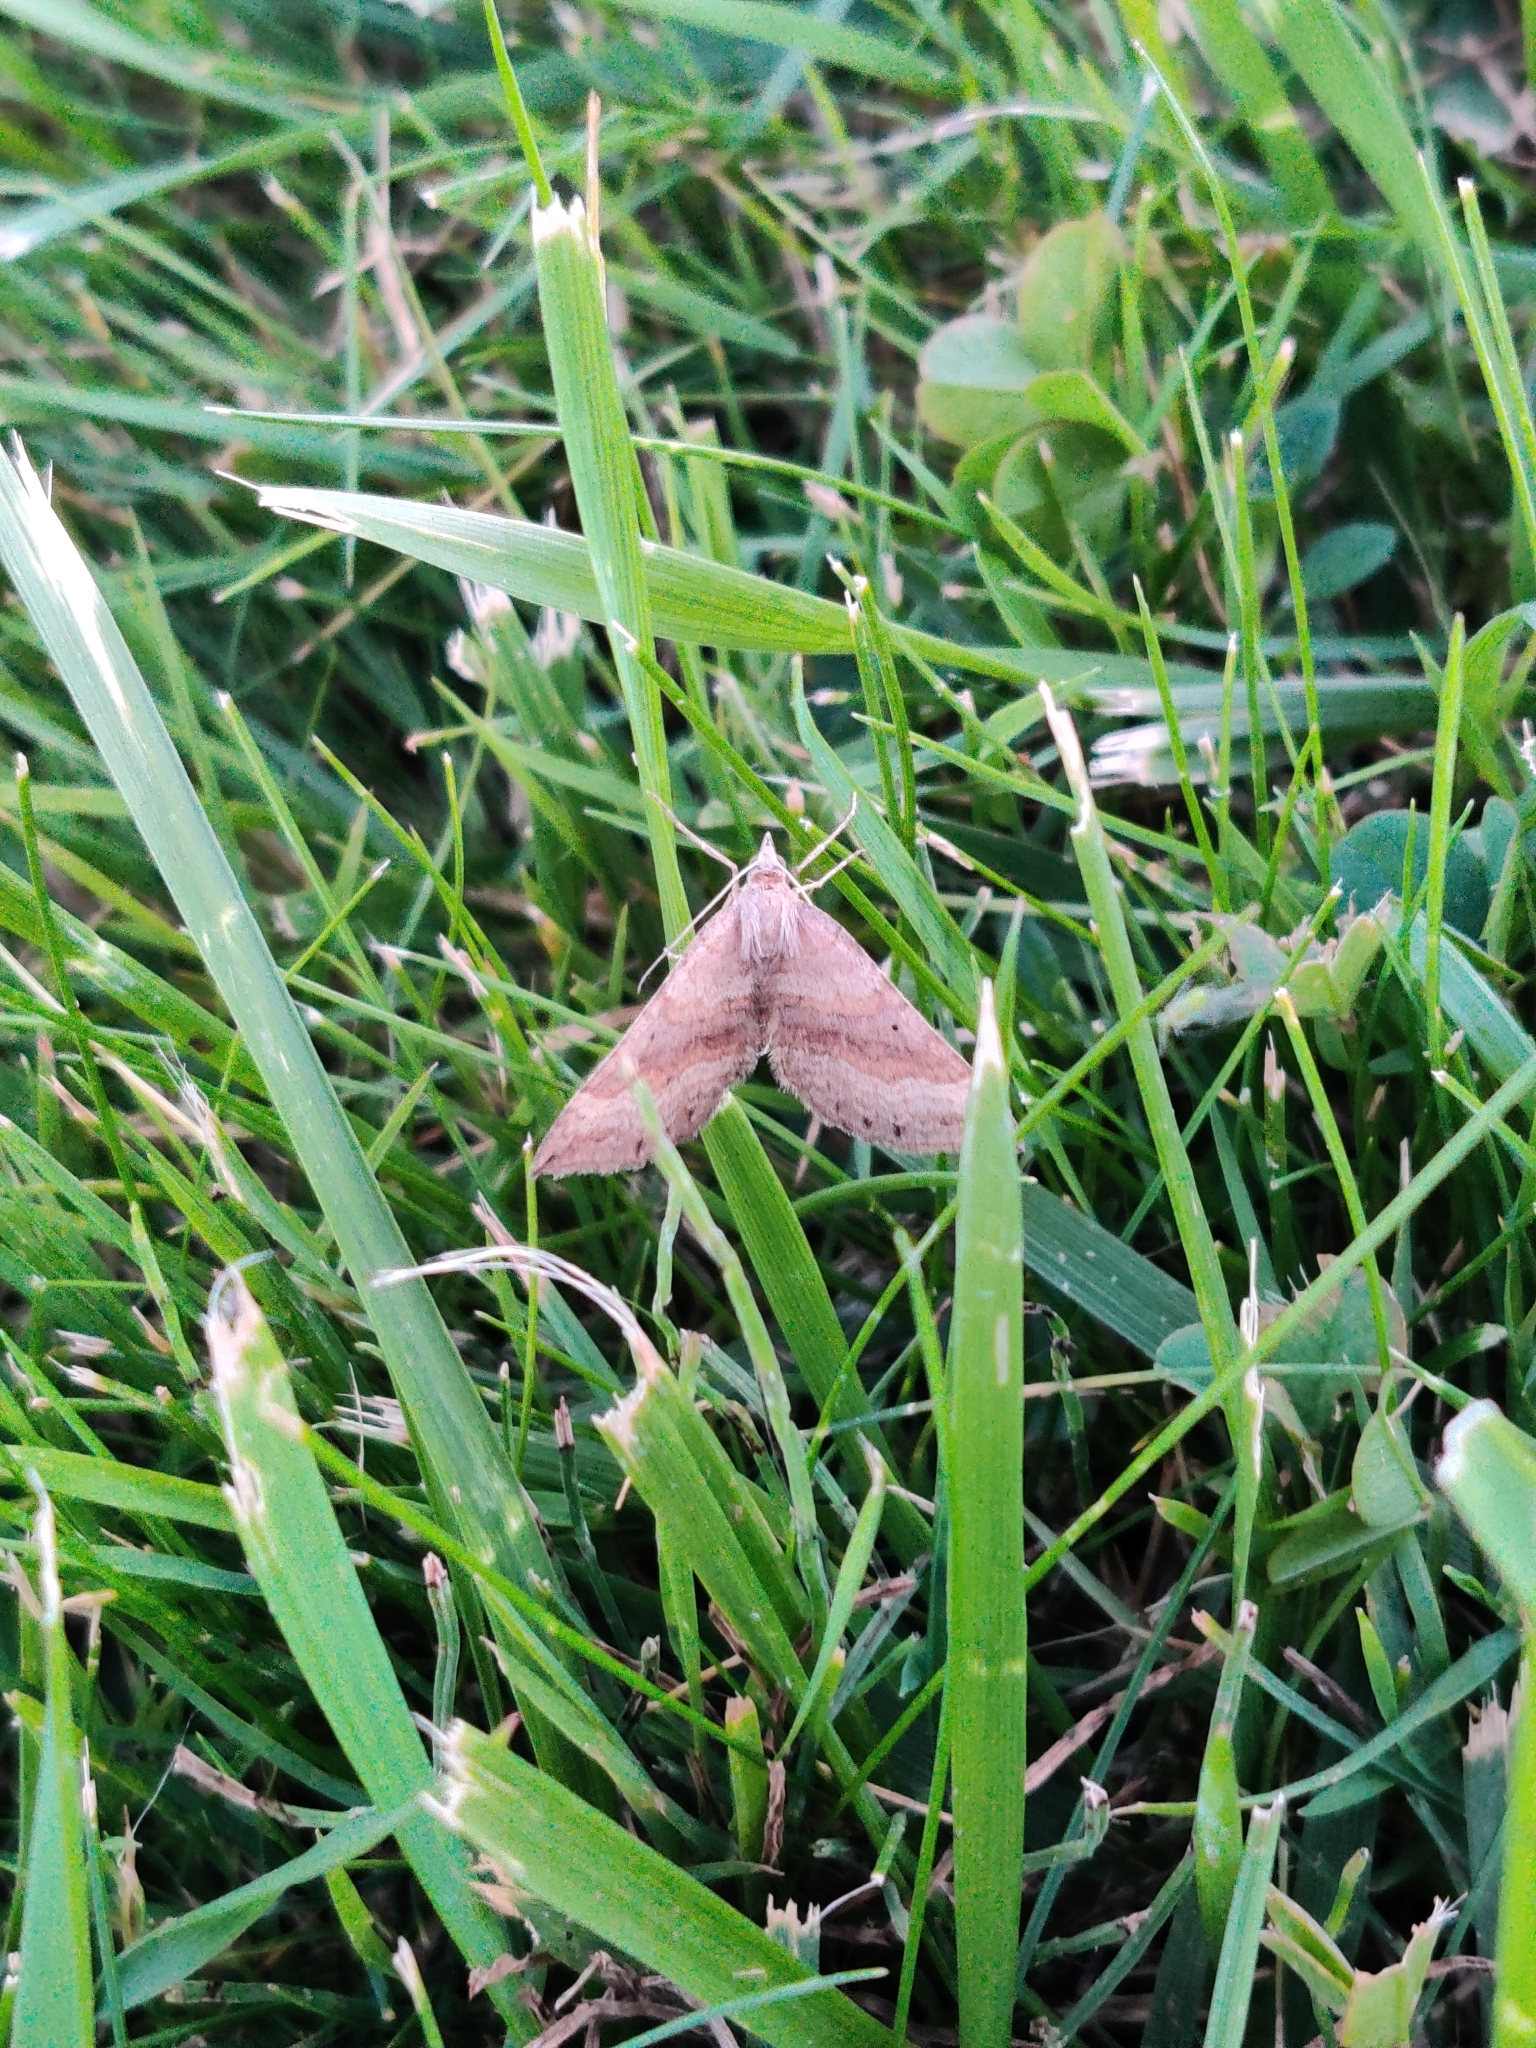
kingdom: Animalia
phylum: Arthropoda
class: Insecta
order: Lepidoptera
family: Geometridae
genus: Scotopteryx
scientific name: Scotopteryx chenopodiata
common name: Shaded broad-bar
